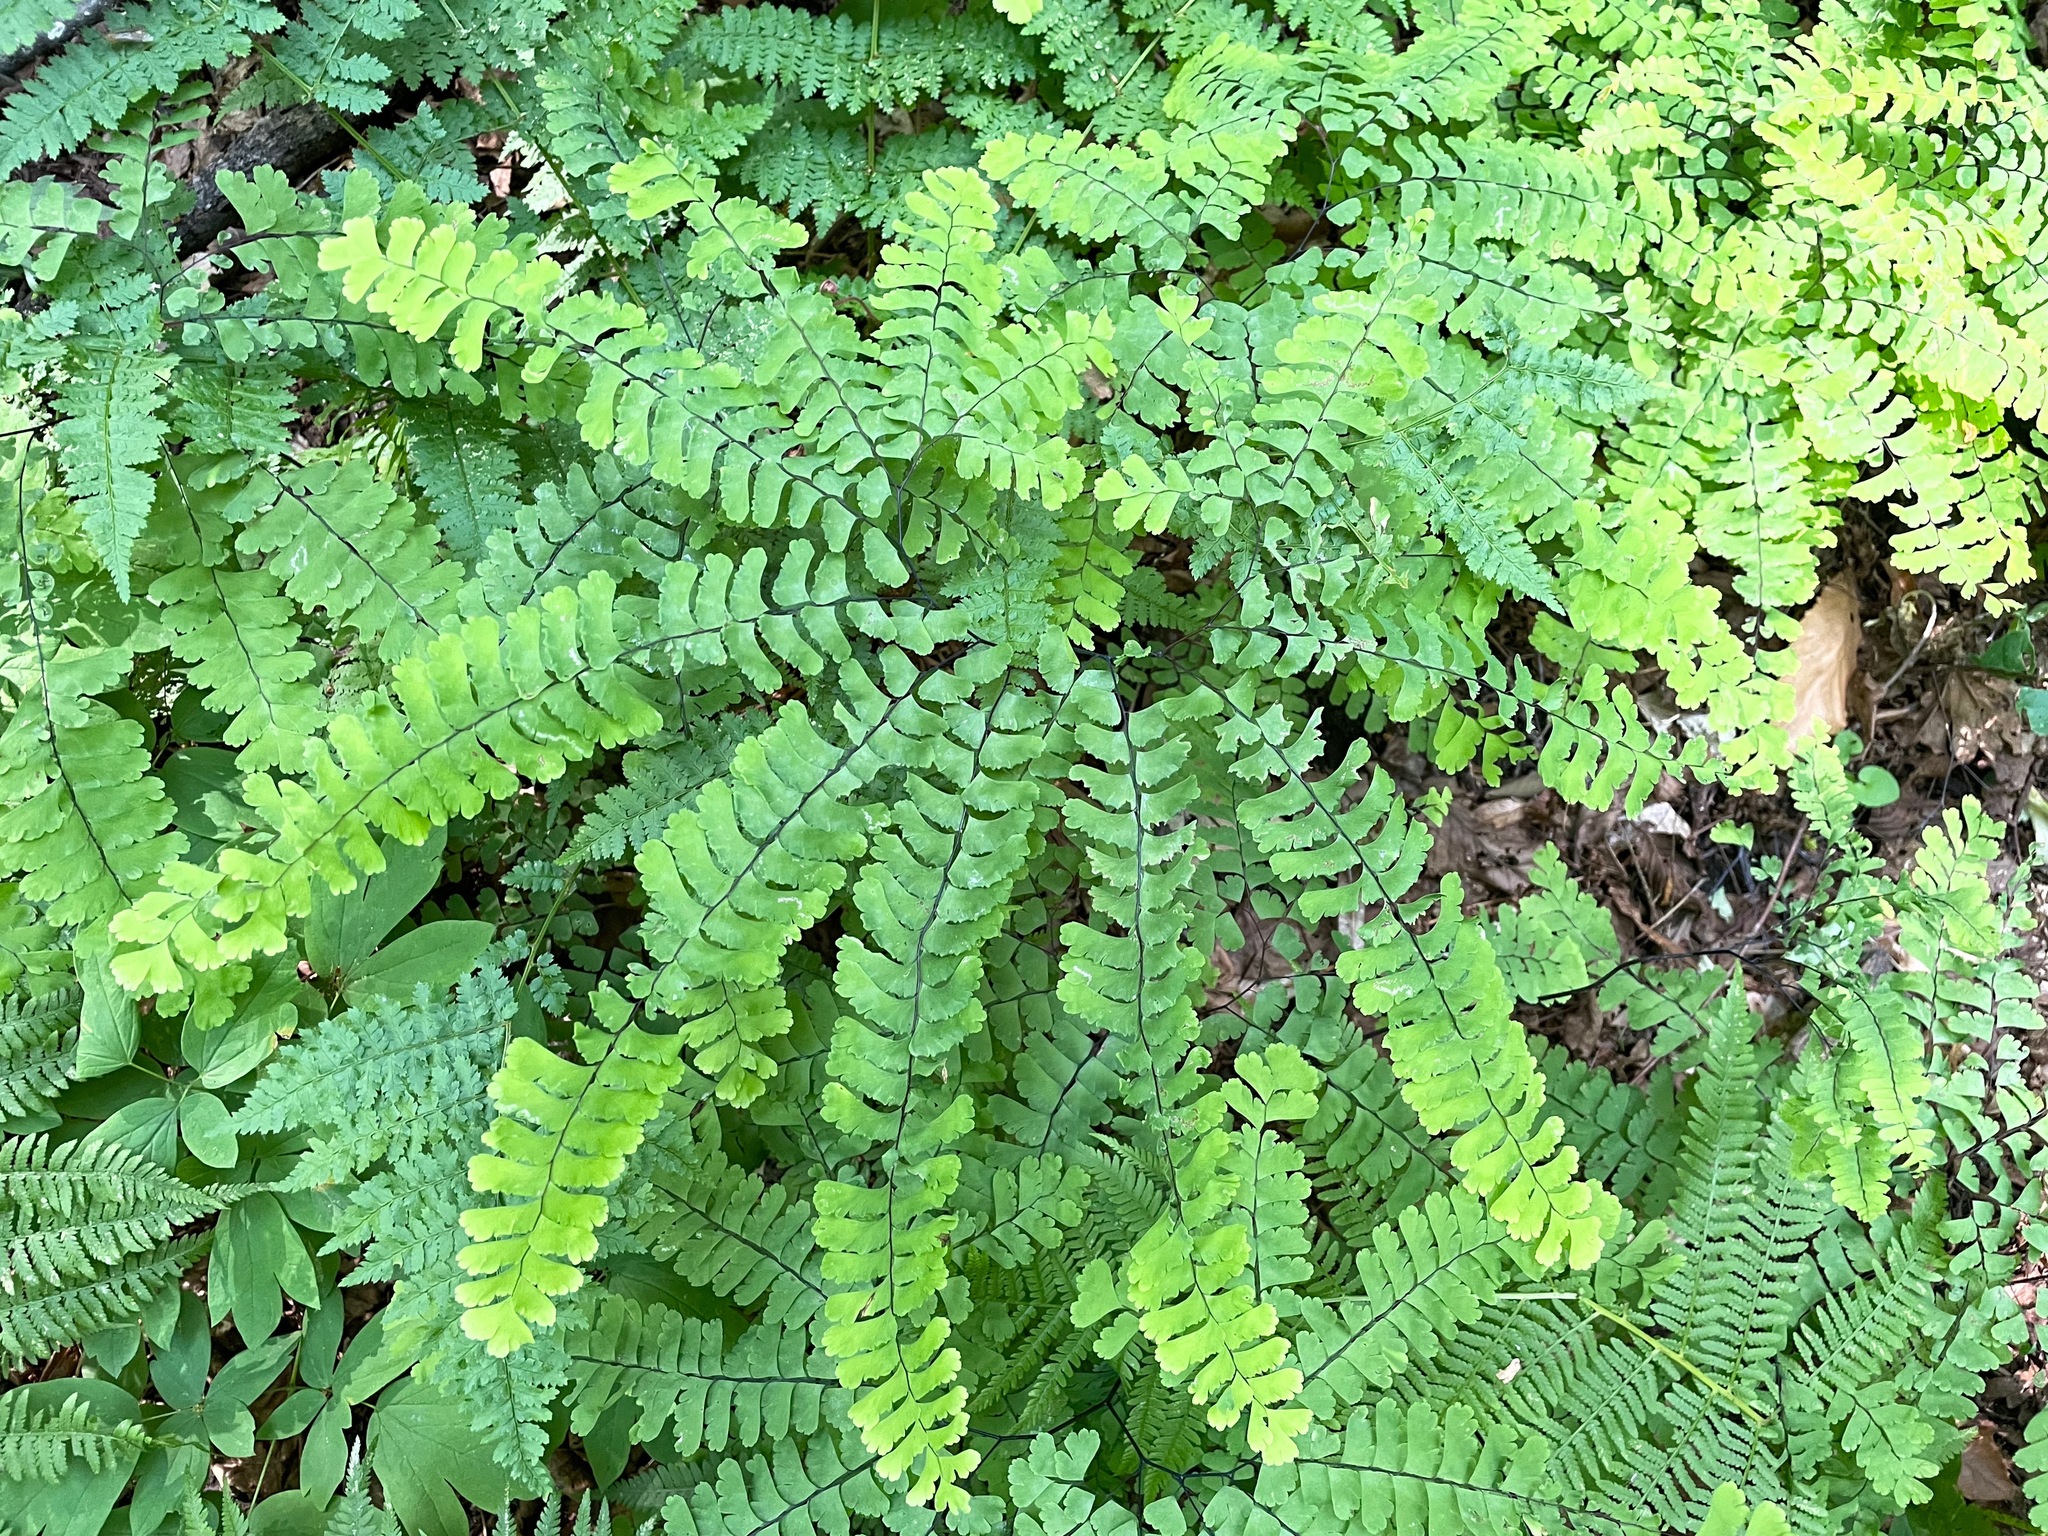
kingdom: Plantae
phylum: Tracheophyta
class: Polypodiopsida
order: Polypodiales
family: Pteridaceae
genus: Adiantum
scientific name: Adiantum pedatum
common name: Five-finger fern
